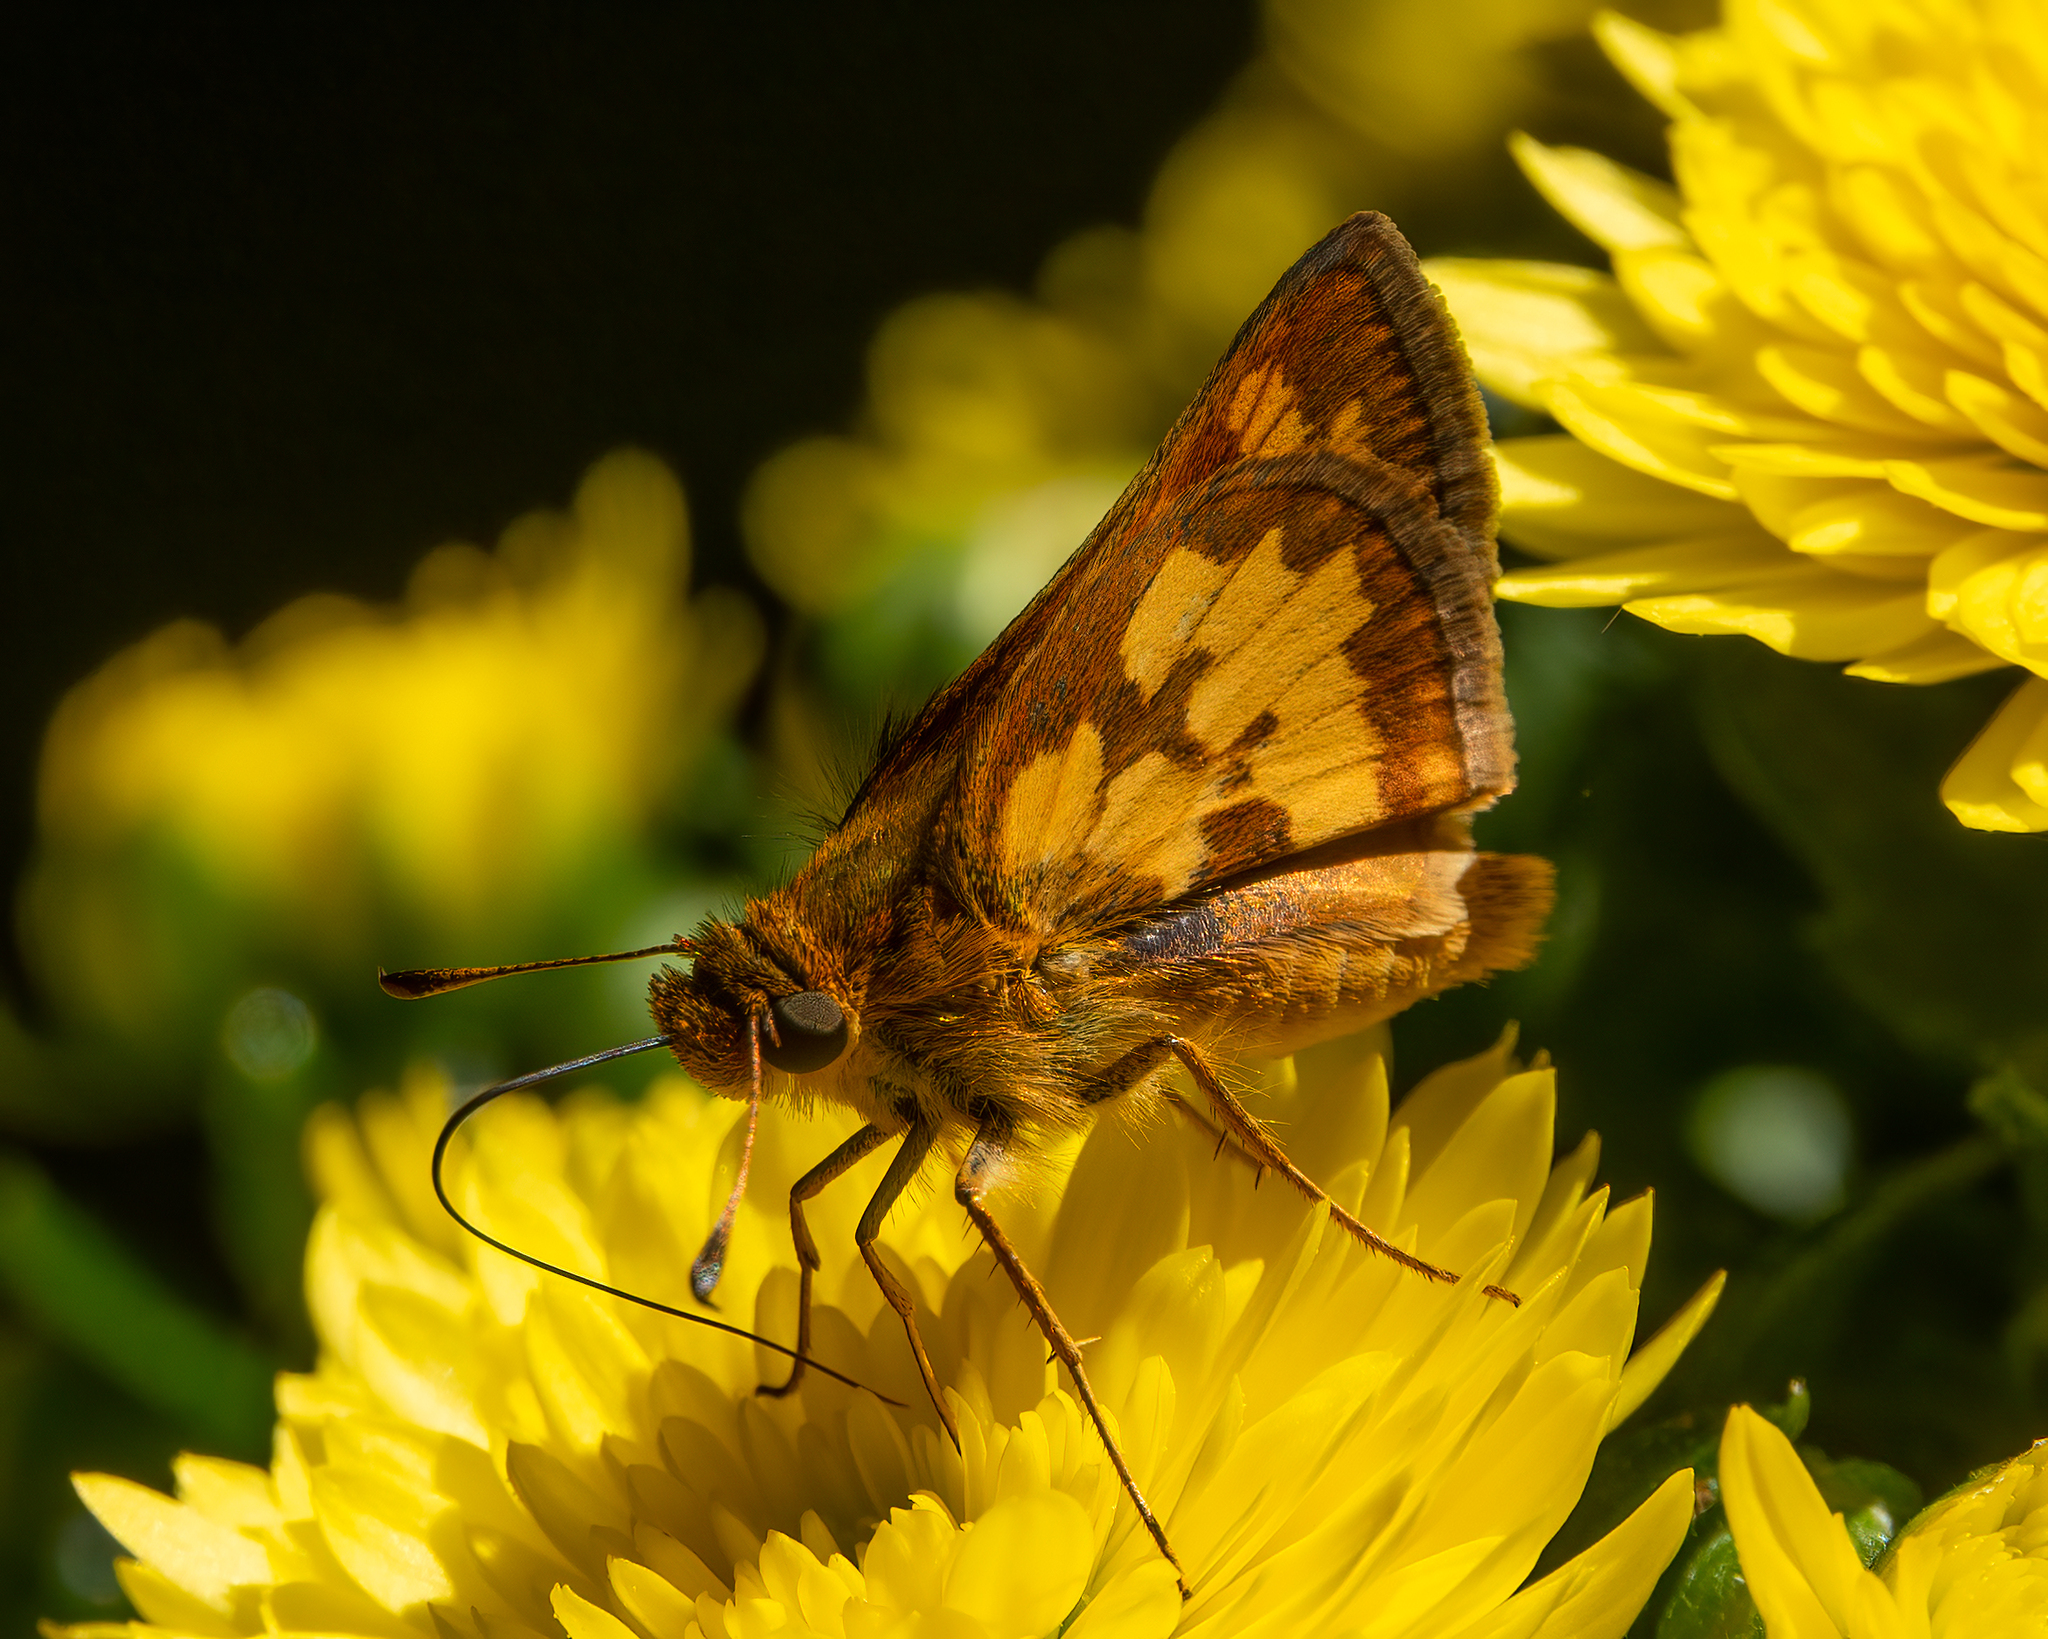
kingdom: Animalia
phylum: Arthropoda
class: Insecta
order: Lepidoptera
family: Hesperiidae
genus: Polites
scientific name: Polites coras
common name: Peck's skipper
